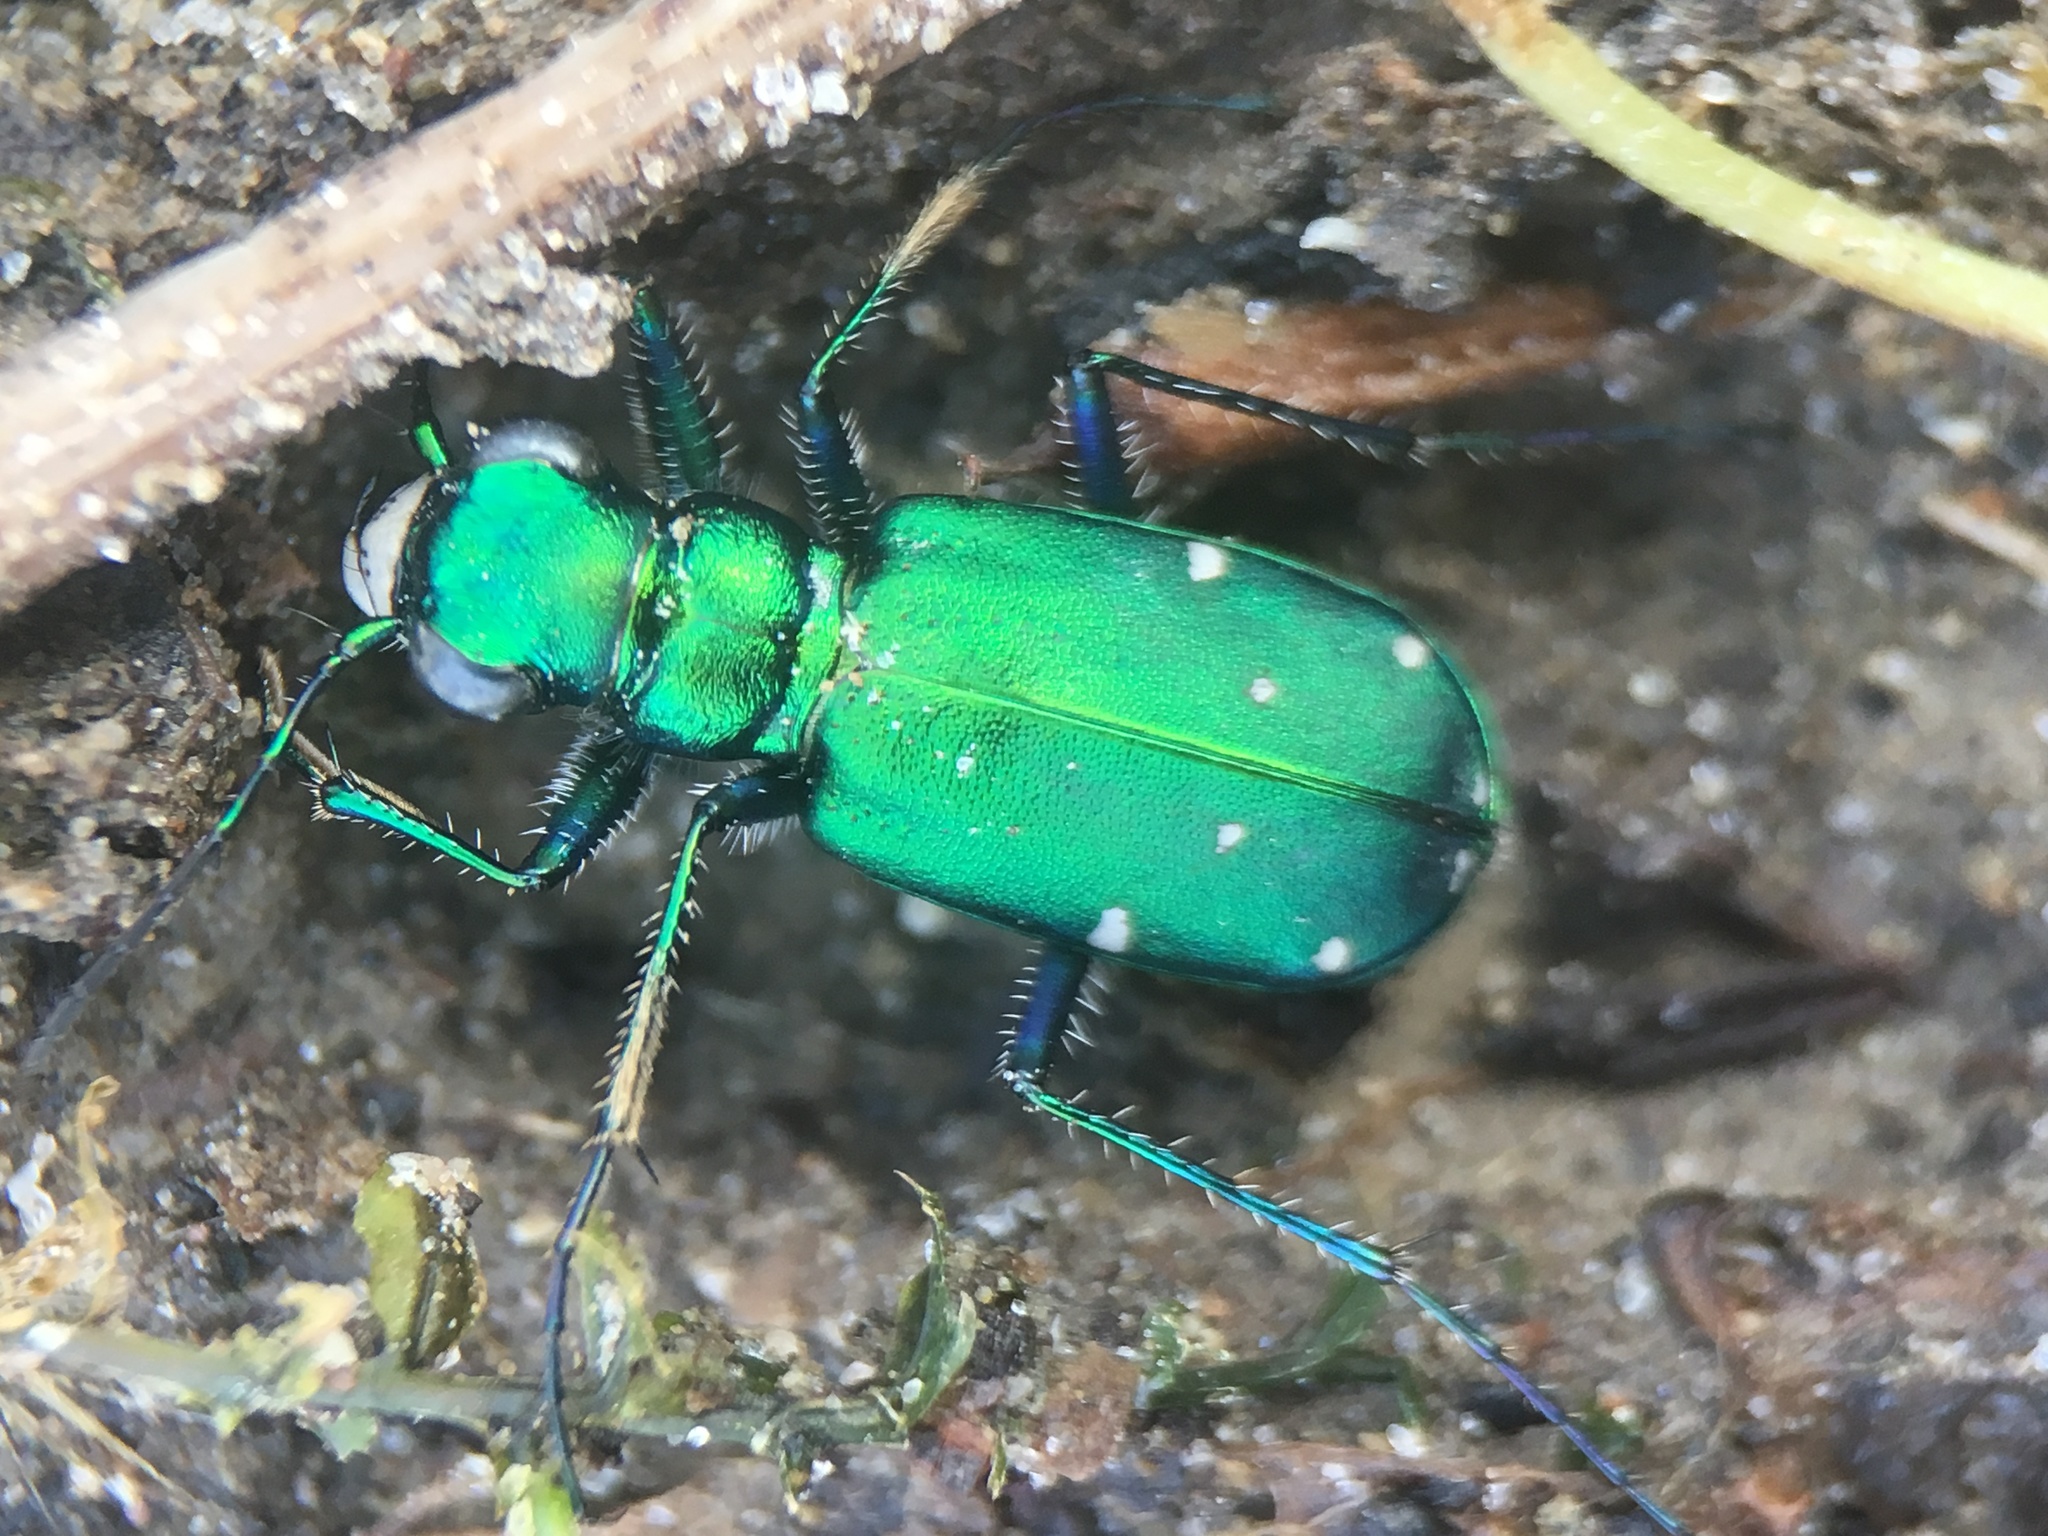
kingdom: Animalia
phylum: Arthropoda
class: Insecta
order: Coleoptera
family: Carabidae
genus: Cicindela
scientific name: Cicindela sexguttata
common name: Six-spotted tiger beetle
